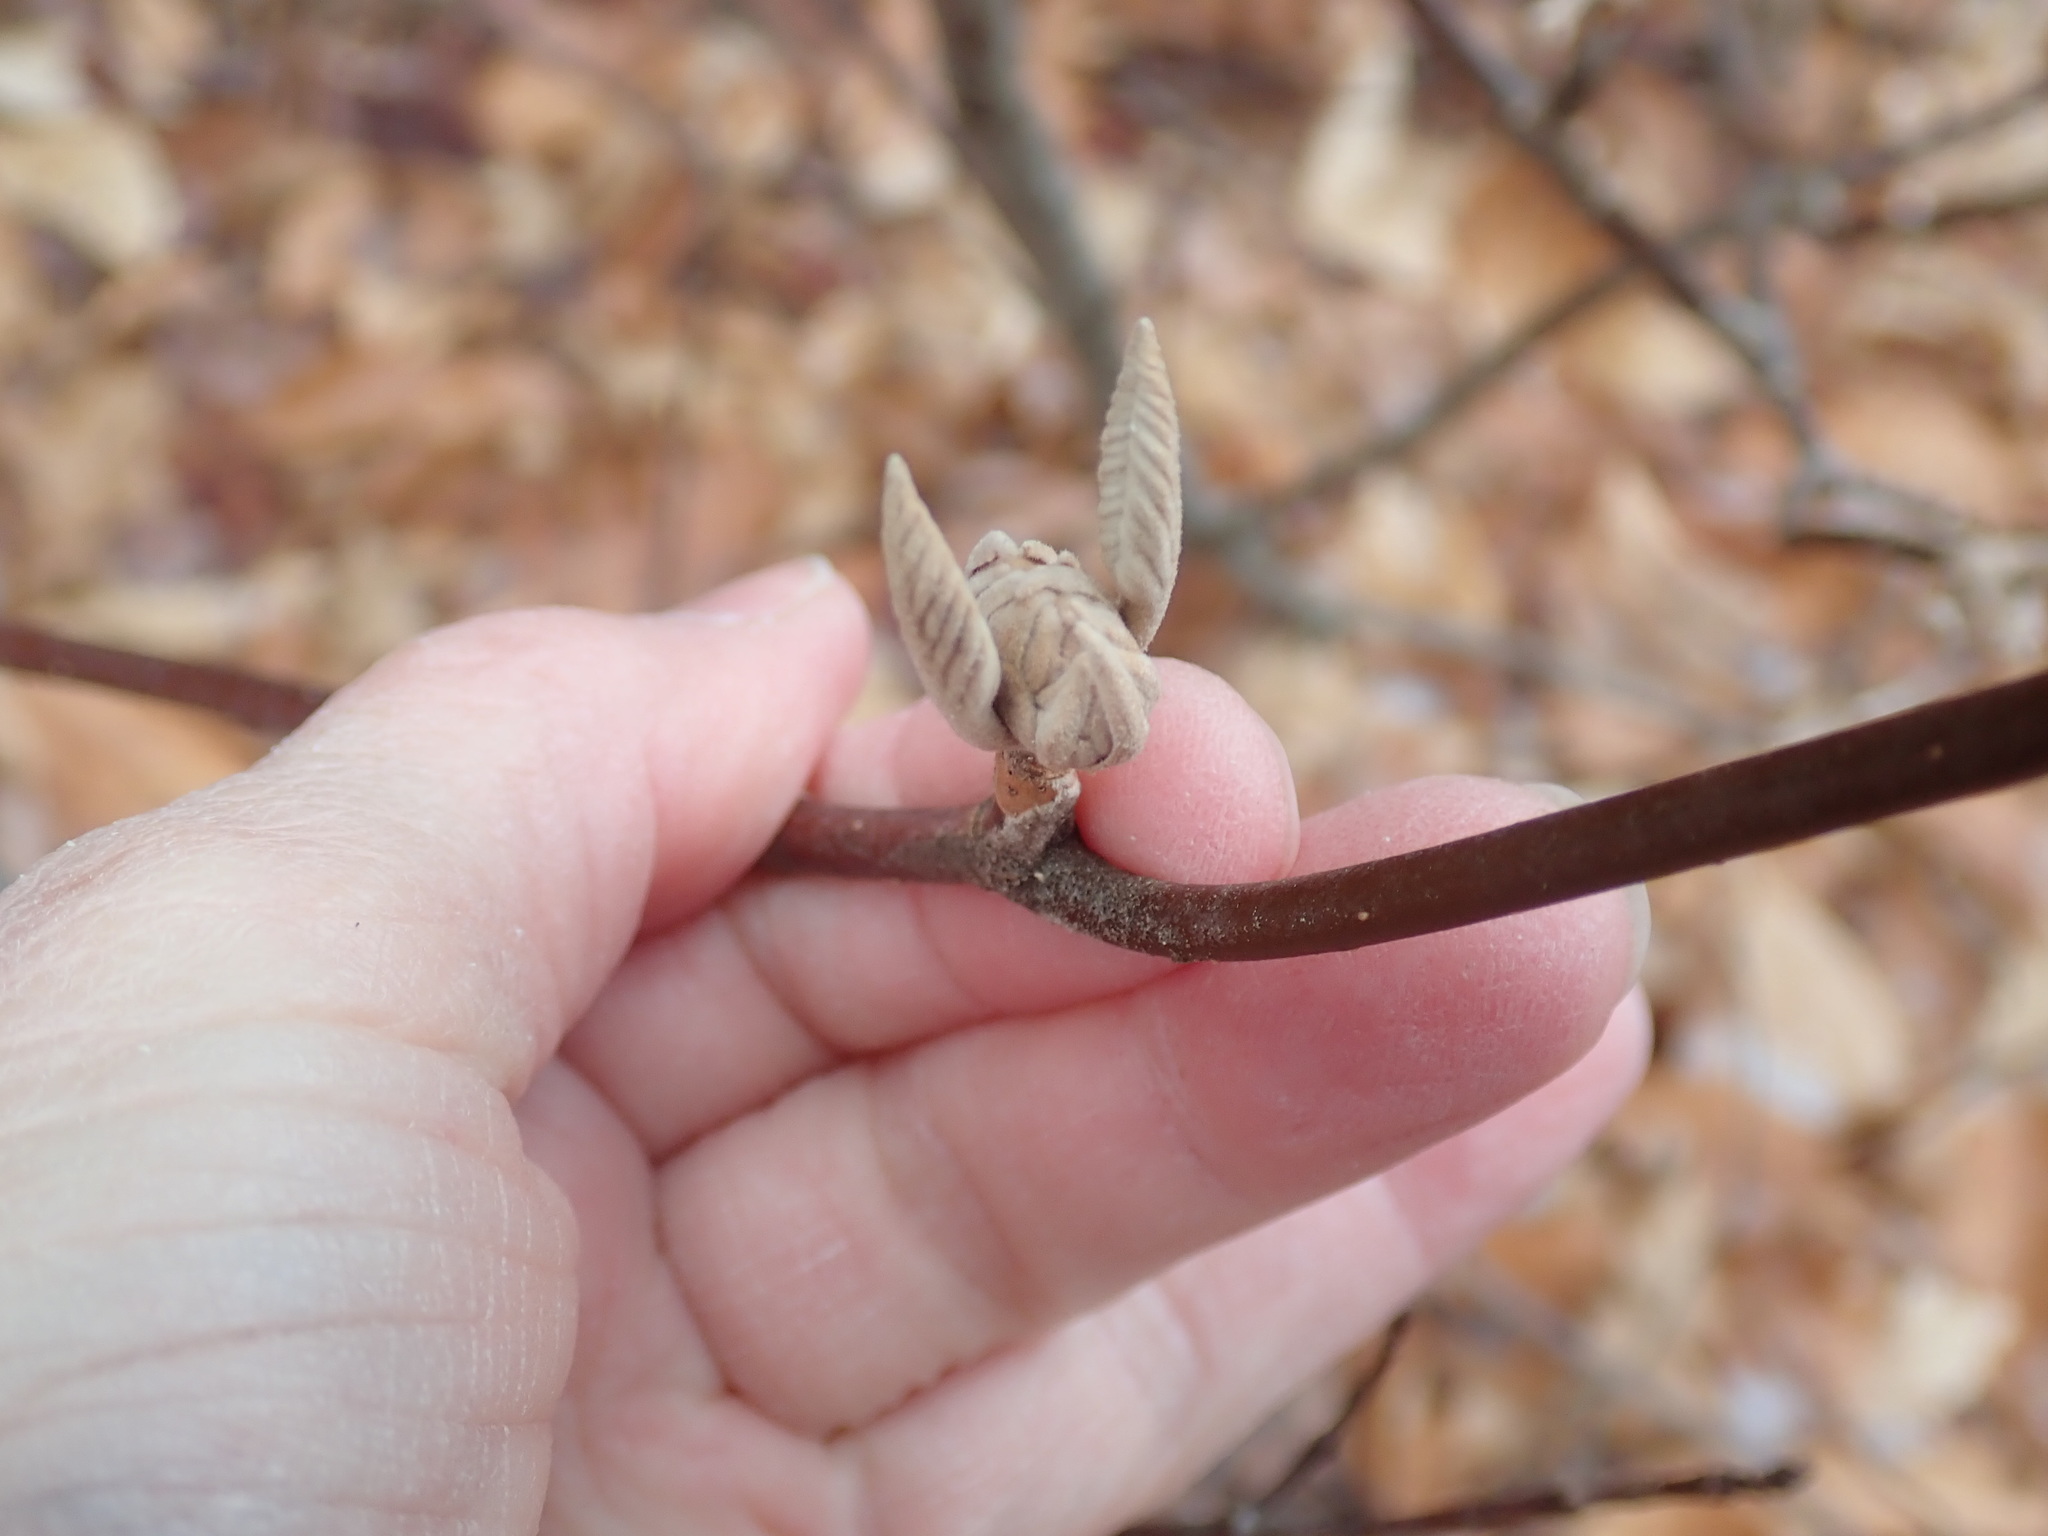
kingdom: Plantae
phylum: Tracheophyta
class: Magnoliopsida
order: Dipsacales
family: Viburnaceae
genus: Viburnum
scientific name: Viburnum lantanoides
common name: Hobblebush
